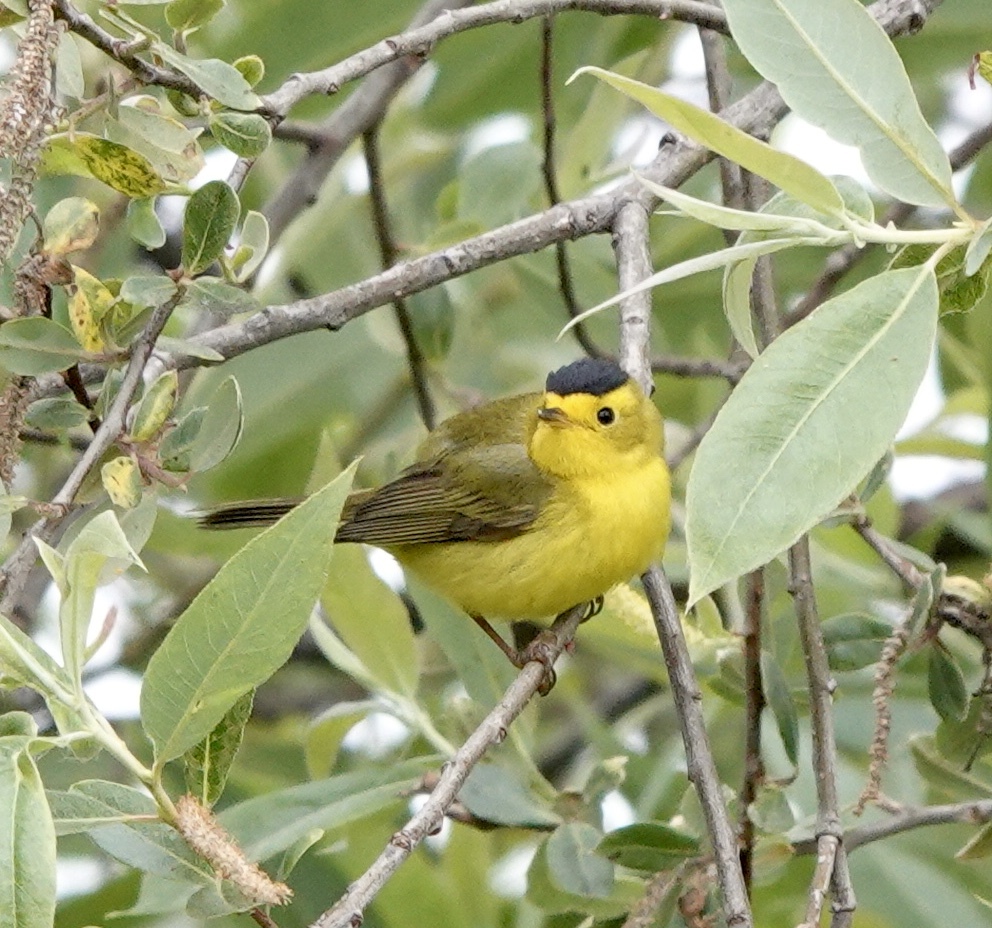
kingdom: Animalia
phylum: Chordata
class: Aves
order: Passeriformes
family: Parulidae
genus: Cardellina
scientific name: Cardellina pusilla
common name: Wilson's warbler
